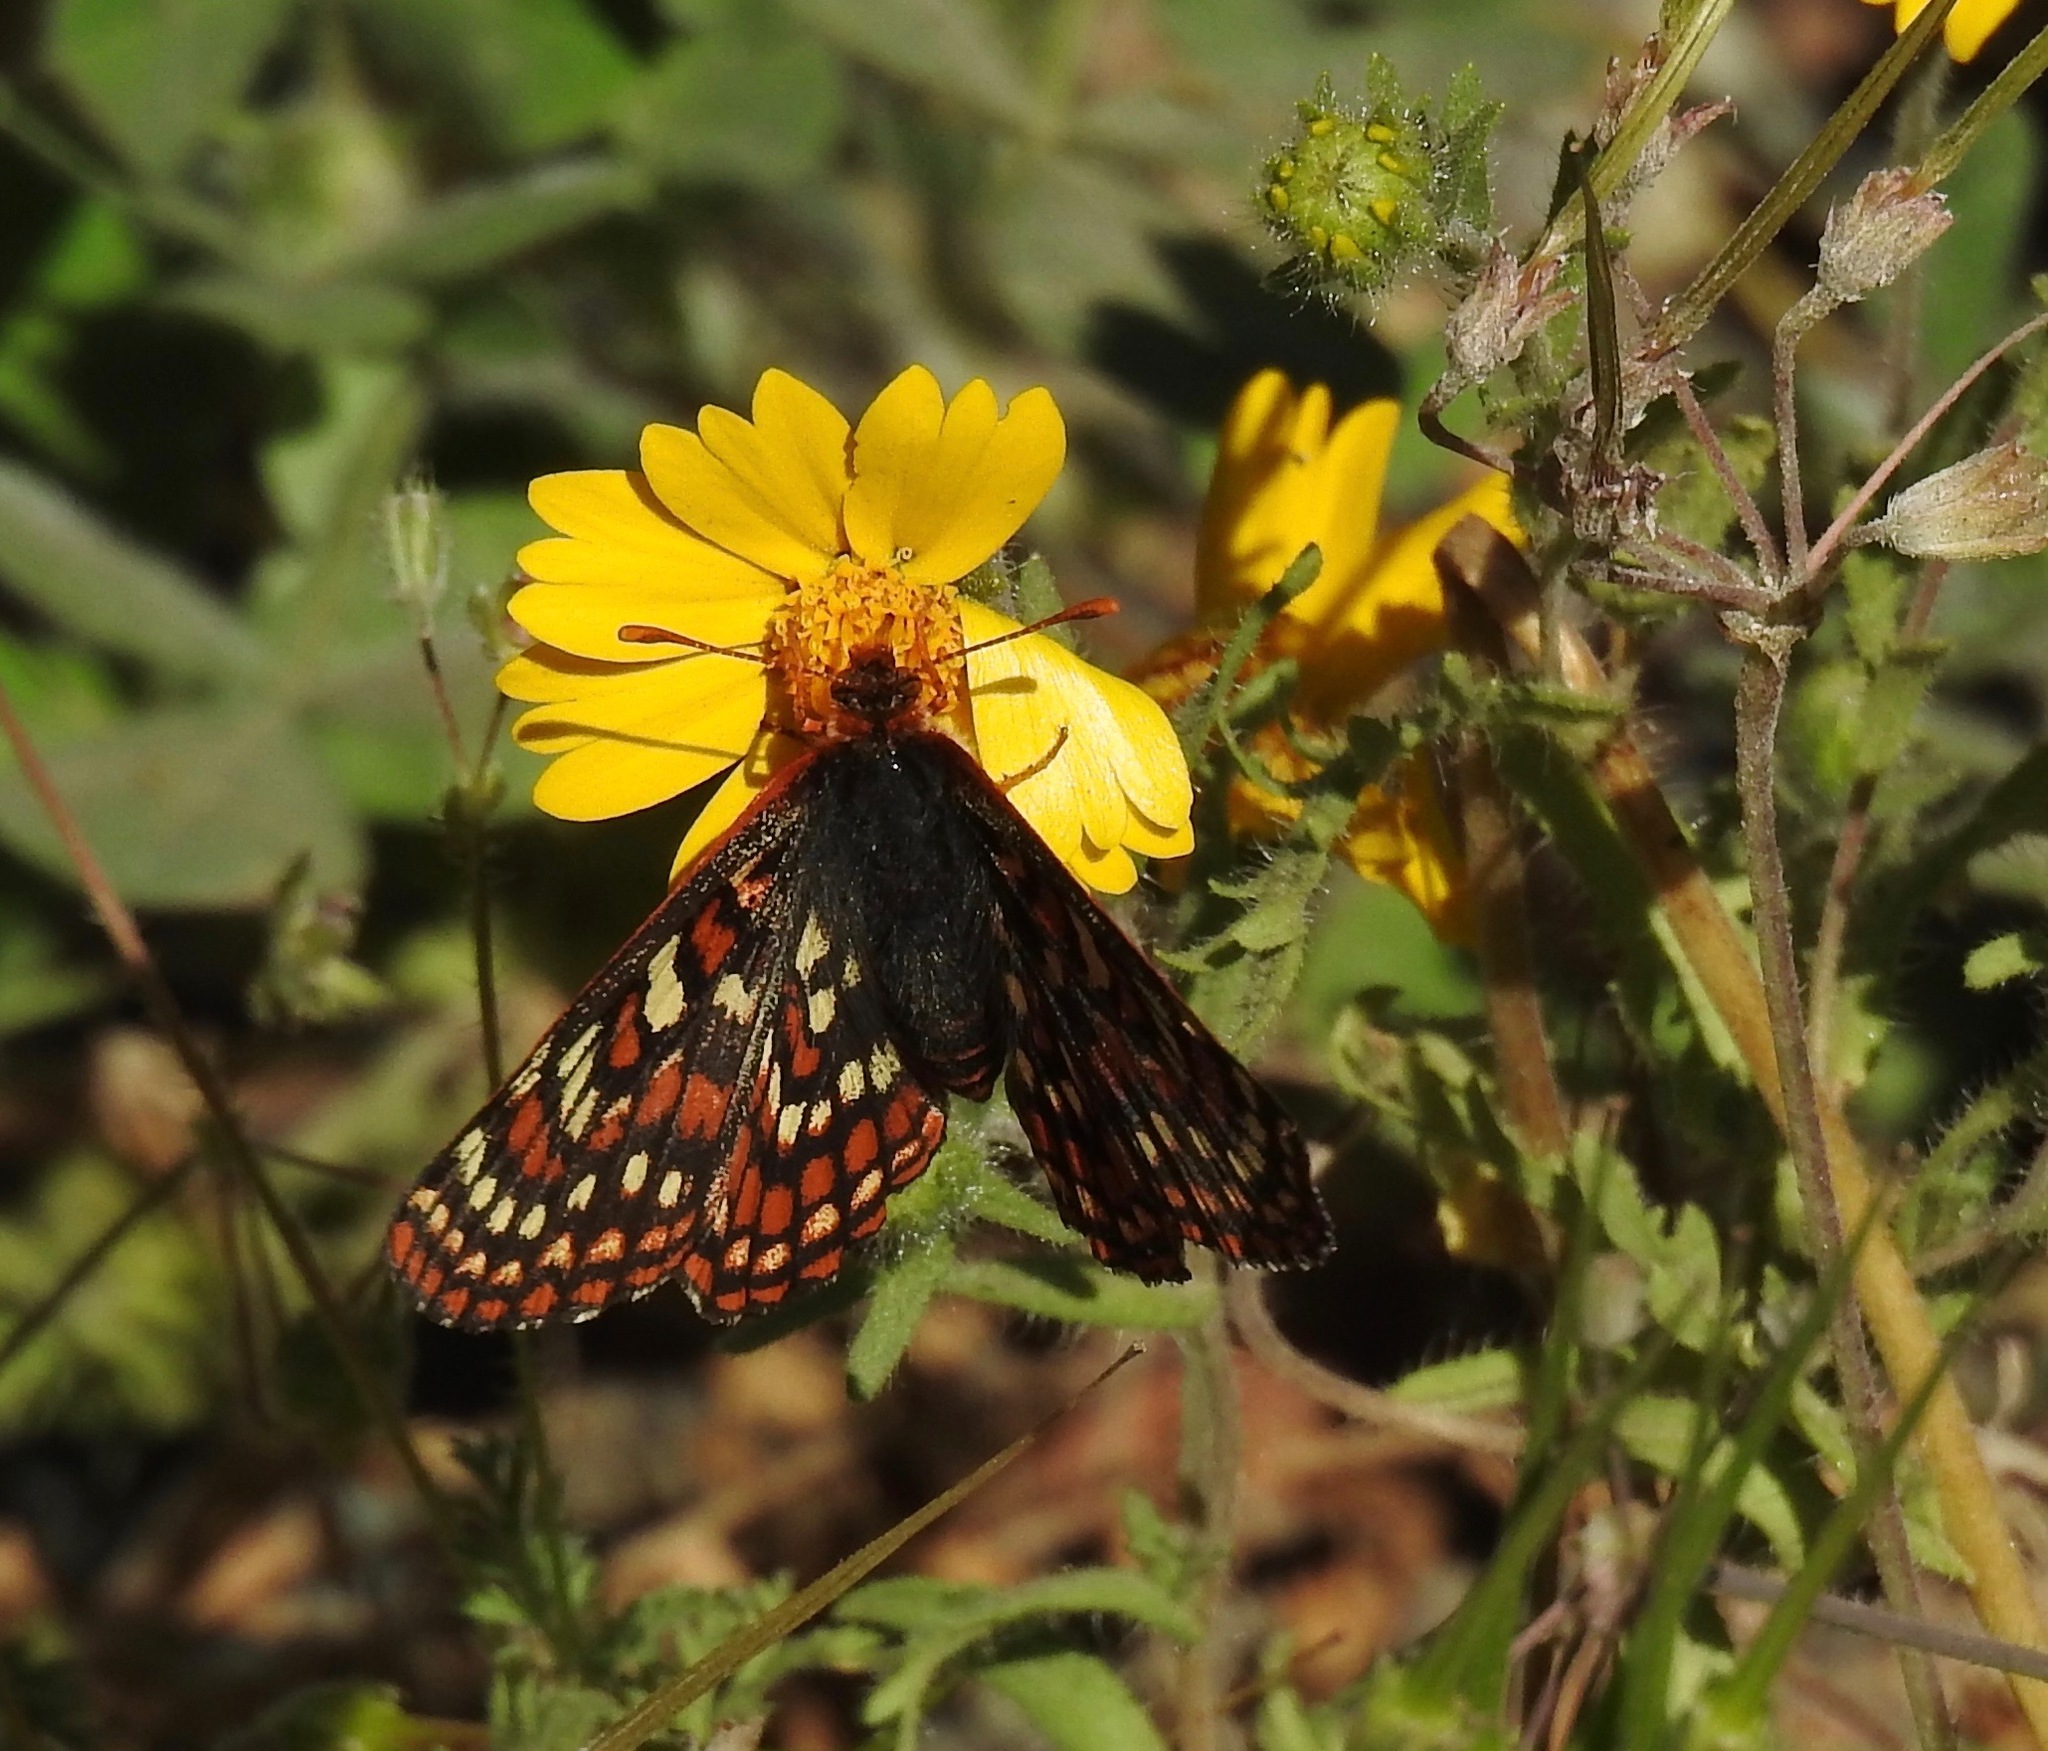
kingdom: Animalia
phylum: Arthropoda
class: Insecta
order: Lepidoptera
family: Nymphalidae
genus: Occidryas
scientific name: Occidryas editha
